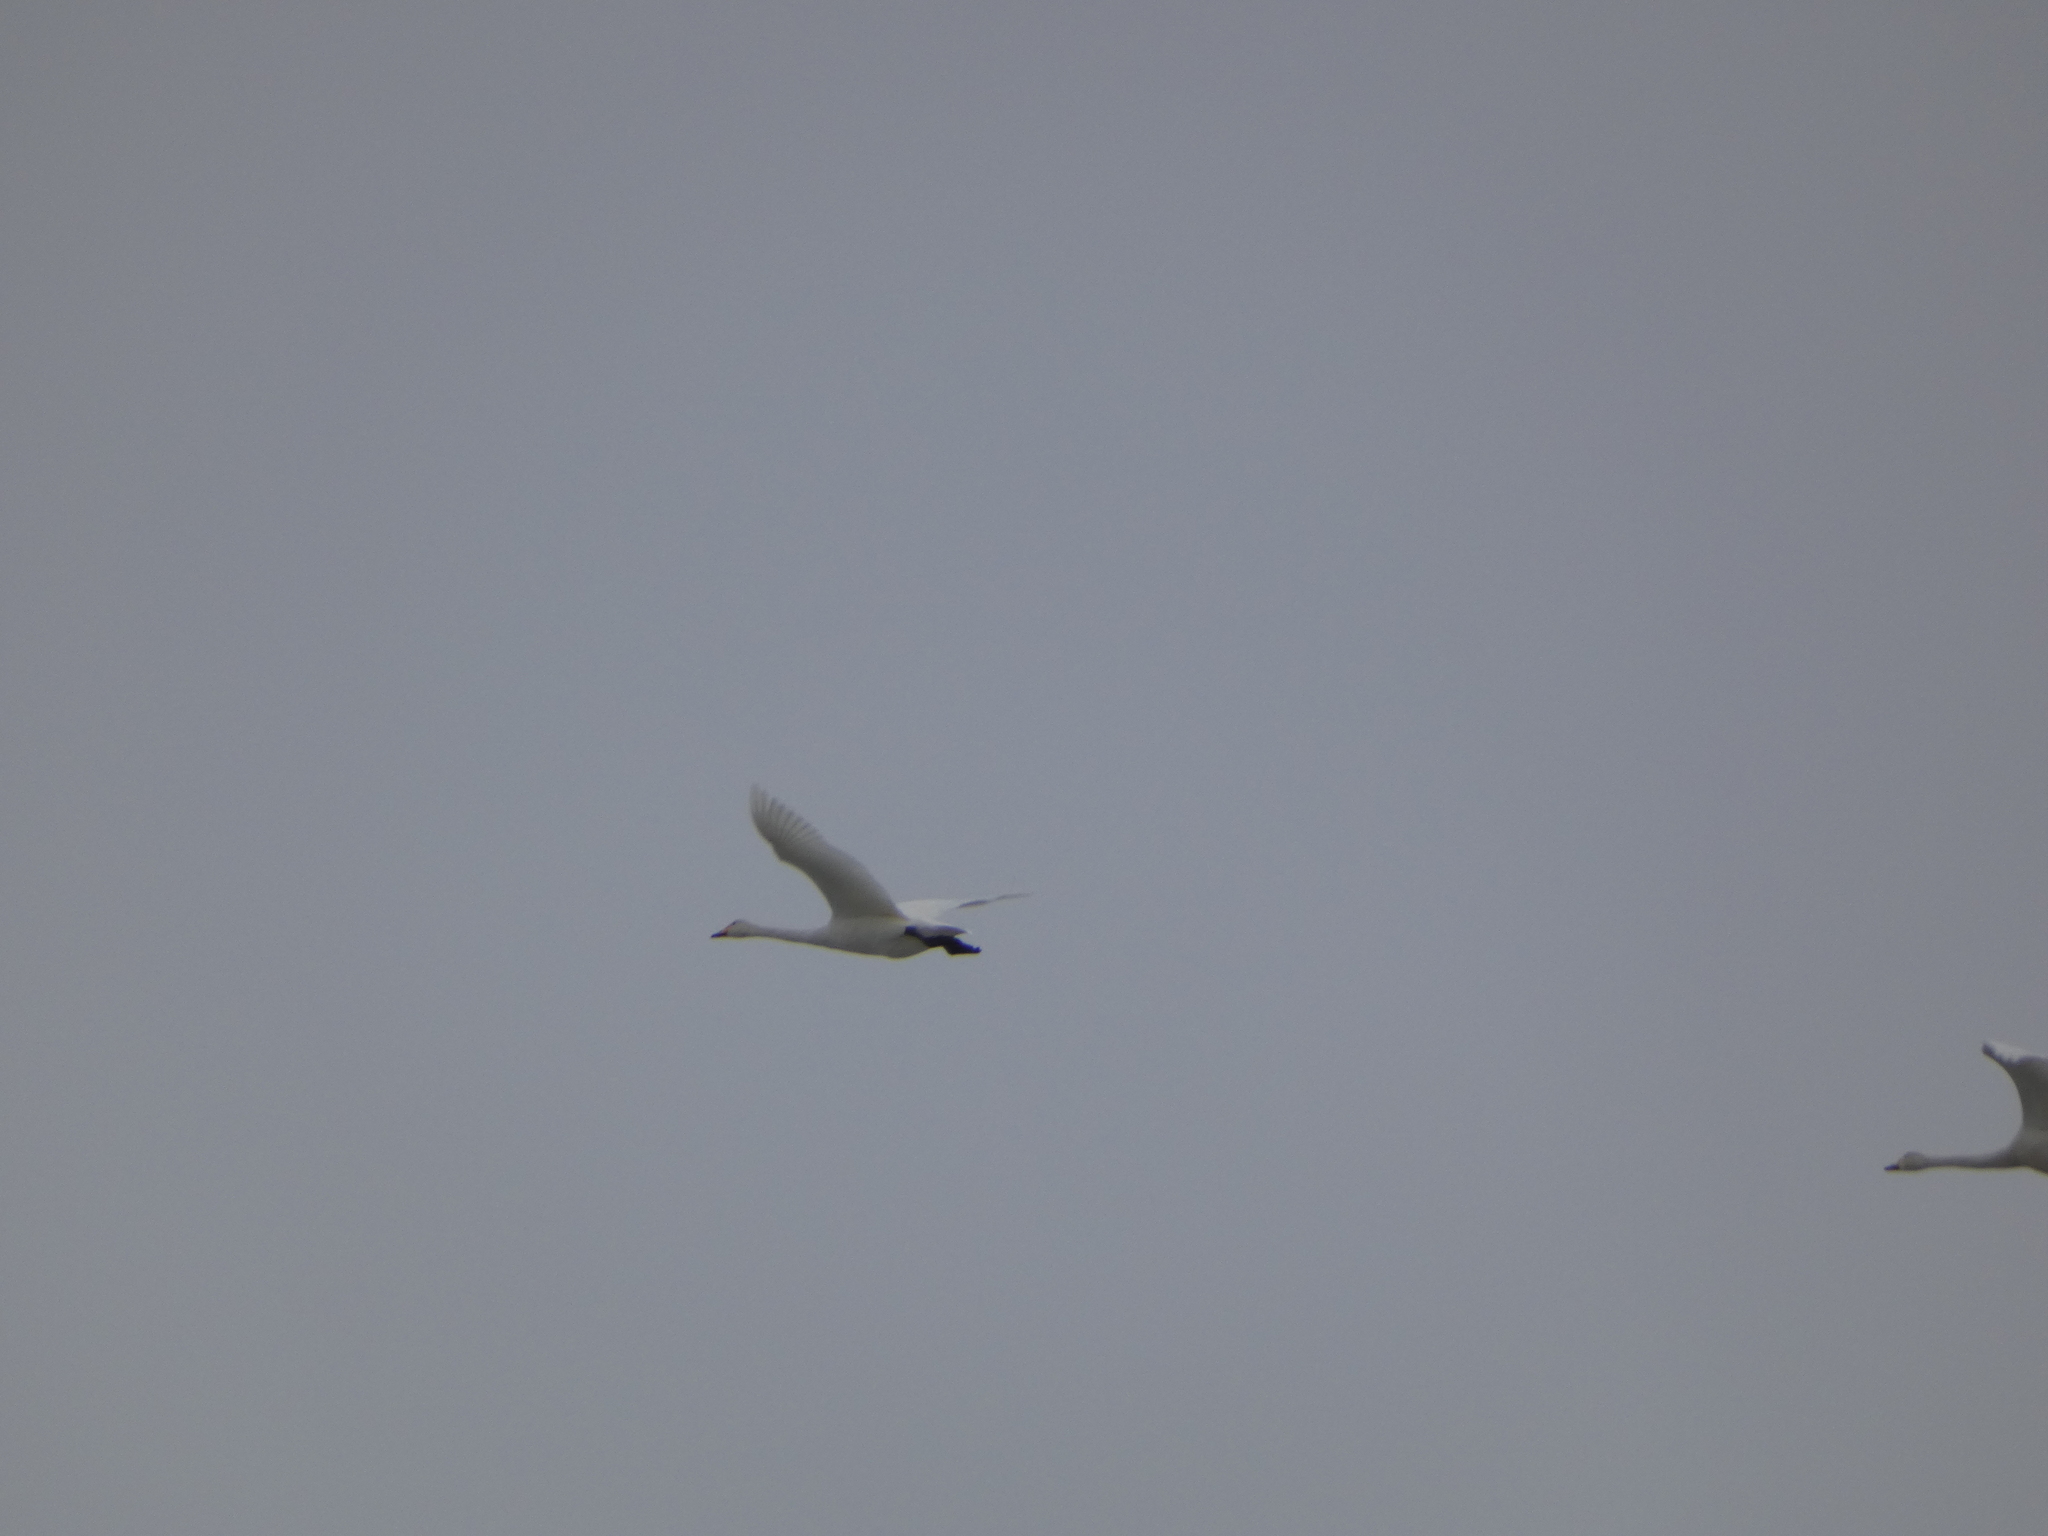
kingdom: Animalia
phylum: Chordata
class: Aves
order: Anseriformes
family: Anatidae
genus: Cygnus
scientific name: Cygnus cygnus
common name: Whooper swan
